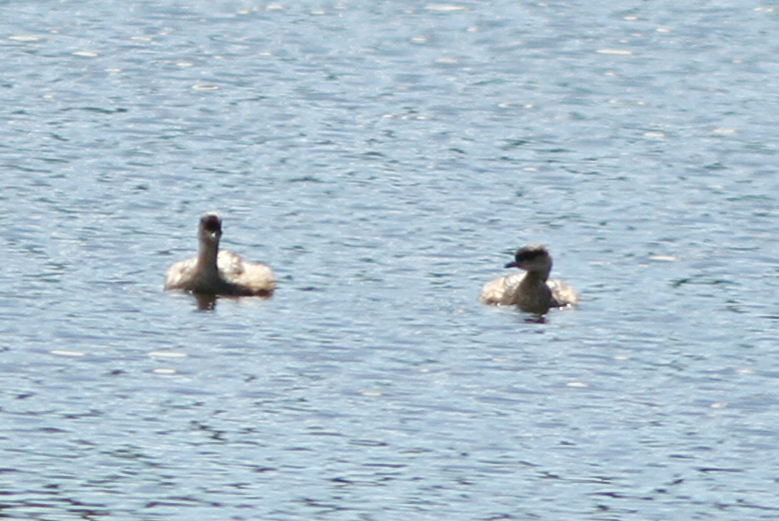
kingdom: Animalia
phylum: Chordata
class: Aves
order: Podicipediformes
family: Podicipedidae
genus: Tachybaptus
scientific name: Tachybaptus novaehollandiae
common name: Australasian grebe
